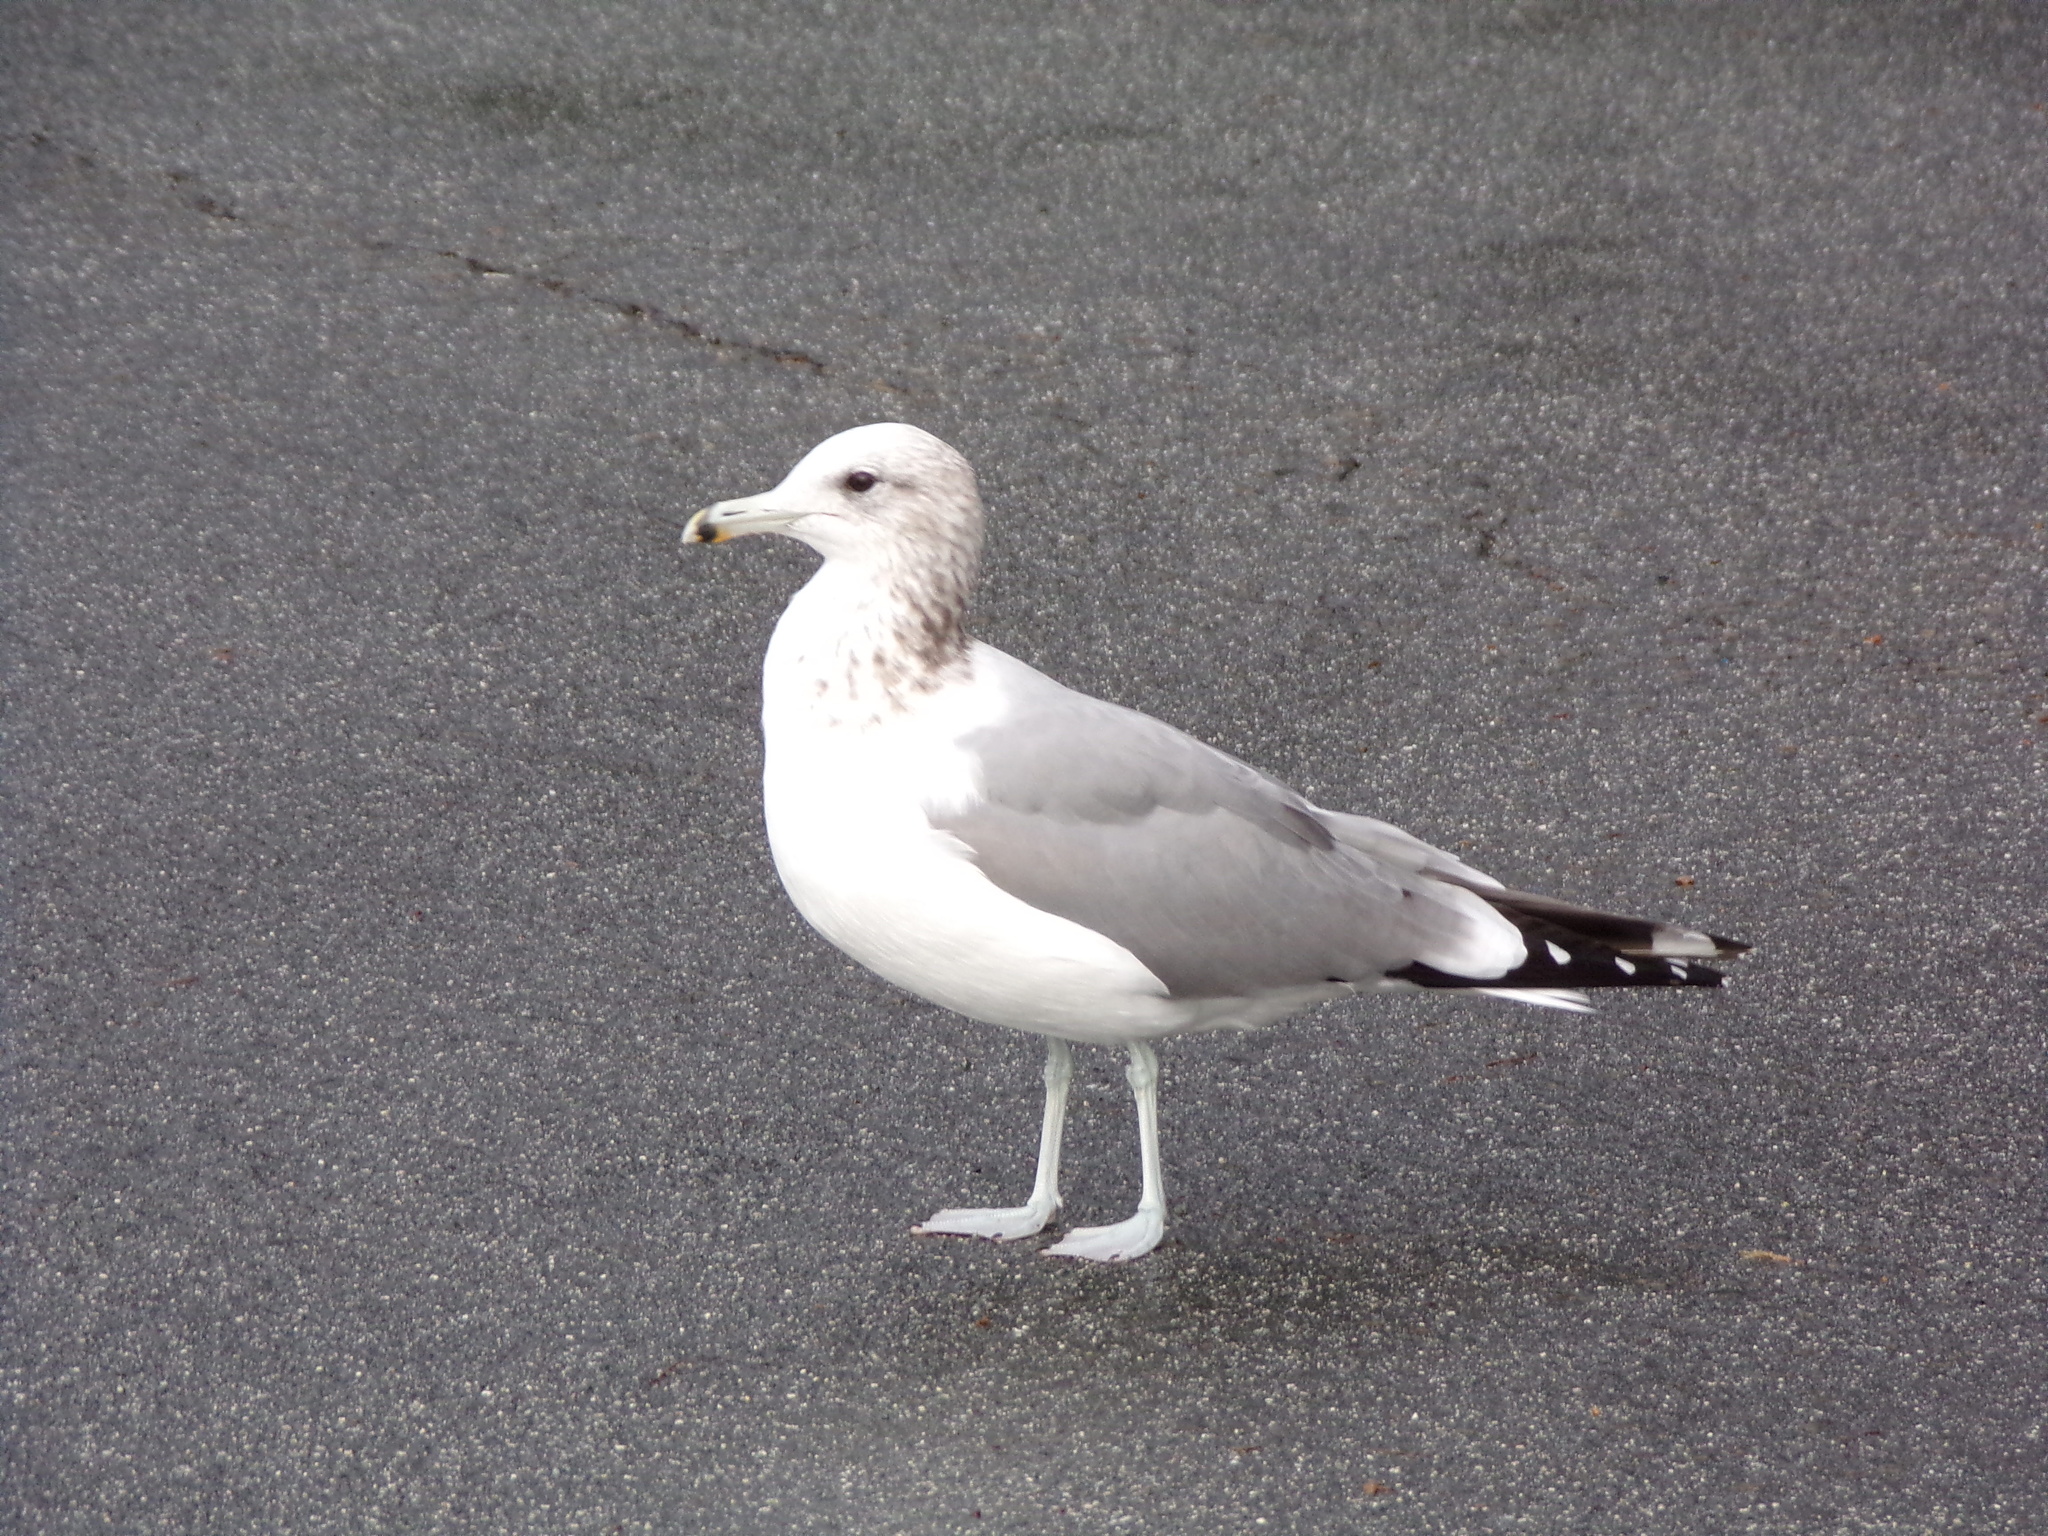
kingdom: Animalia
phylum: Chordata
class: Aves
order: Charadriiformes
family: Laridae
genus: Larus
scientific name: Larus californicus
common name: California gull
